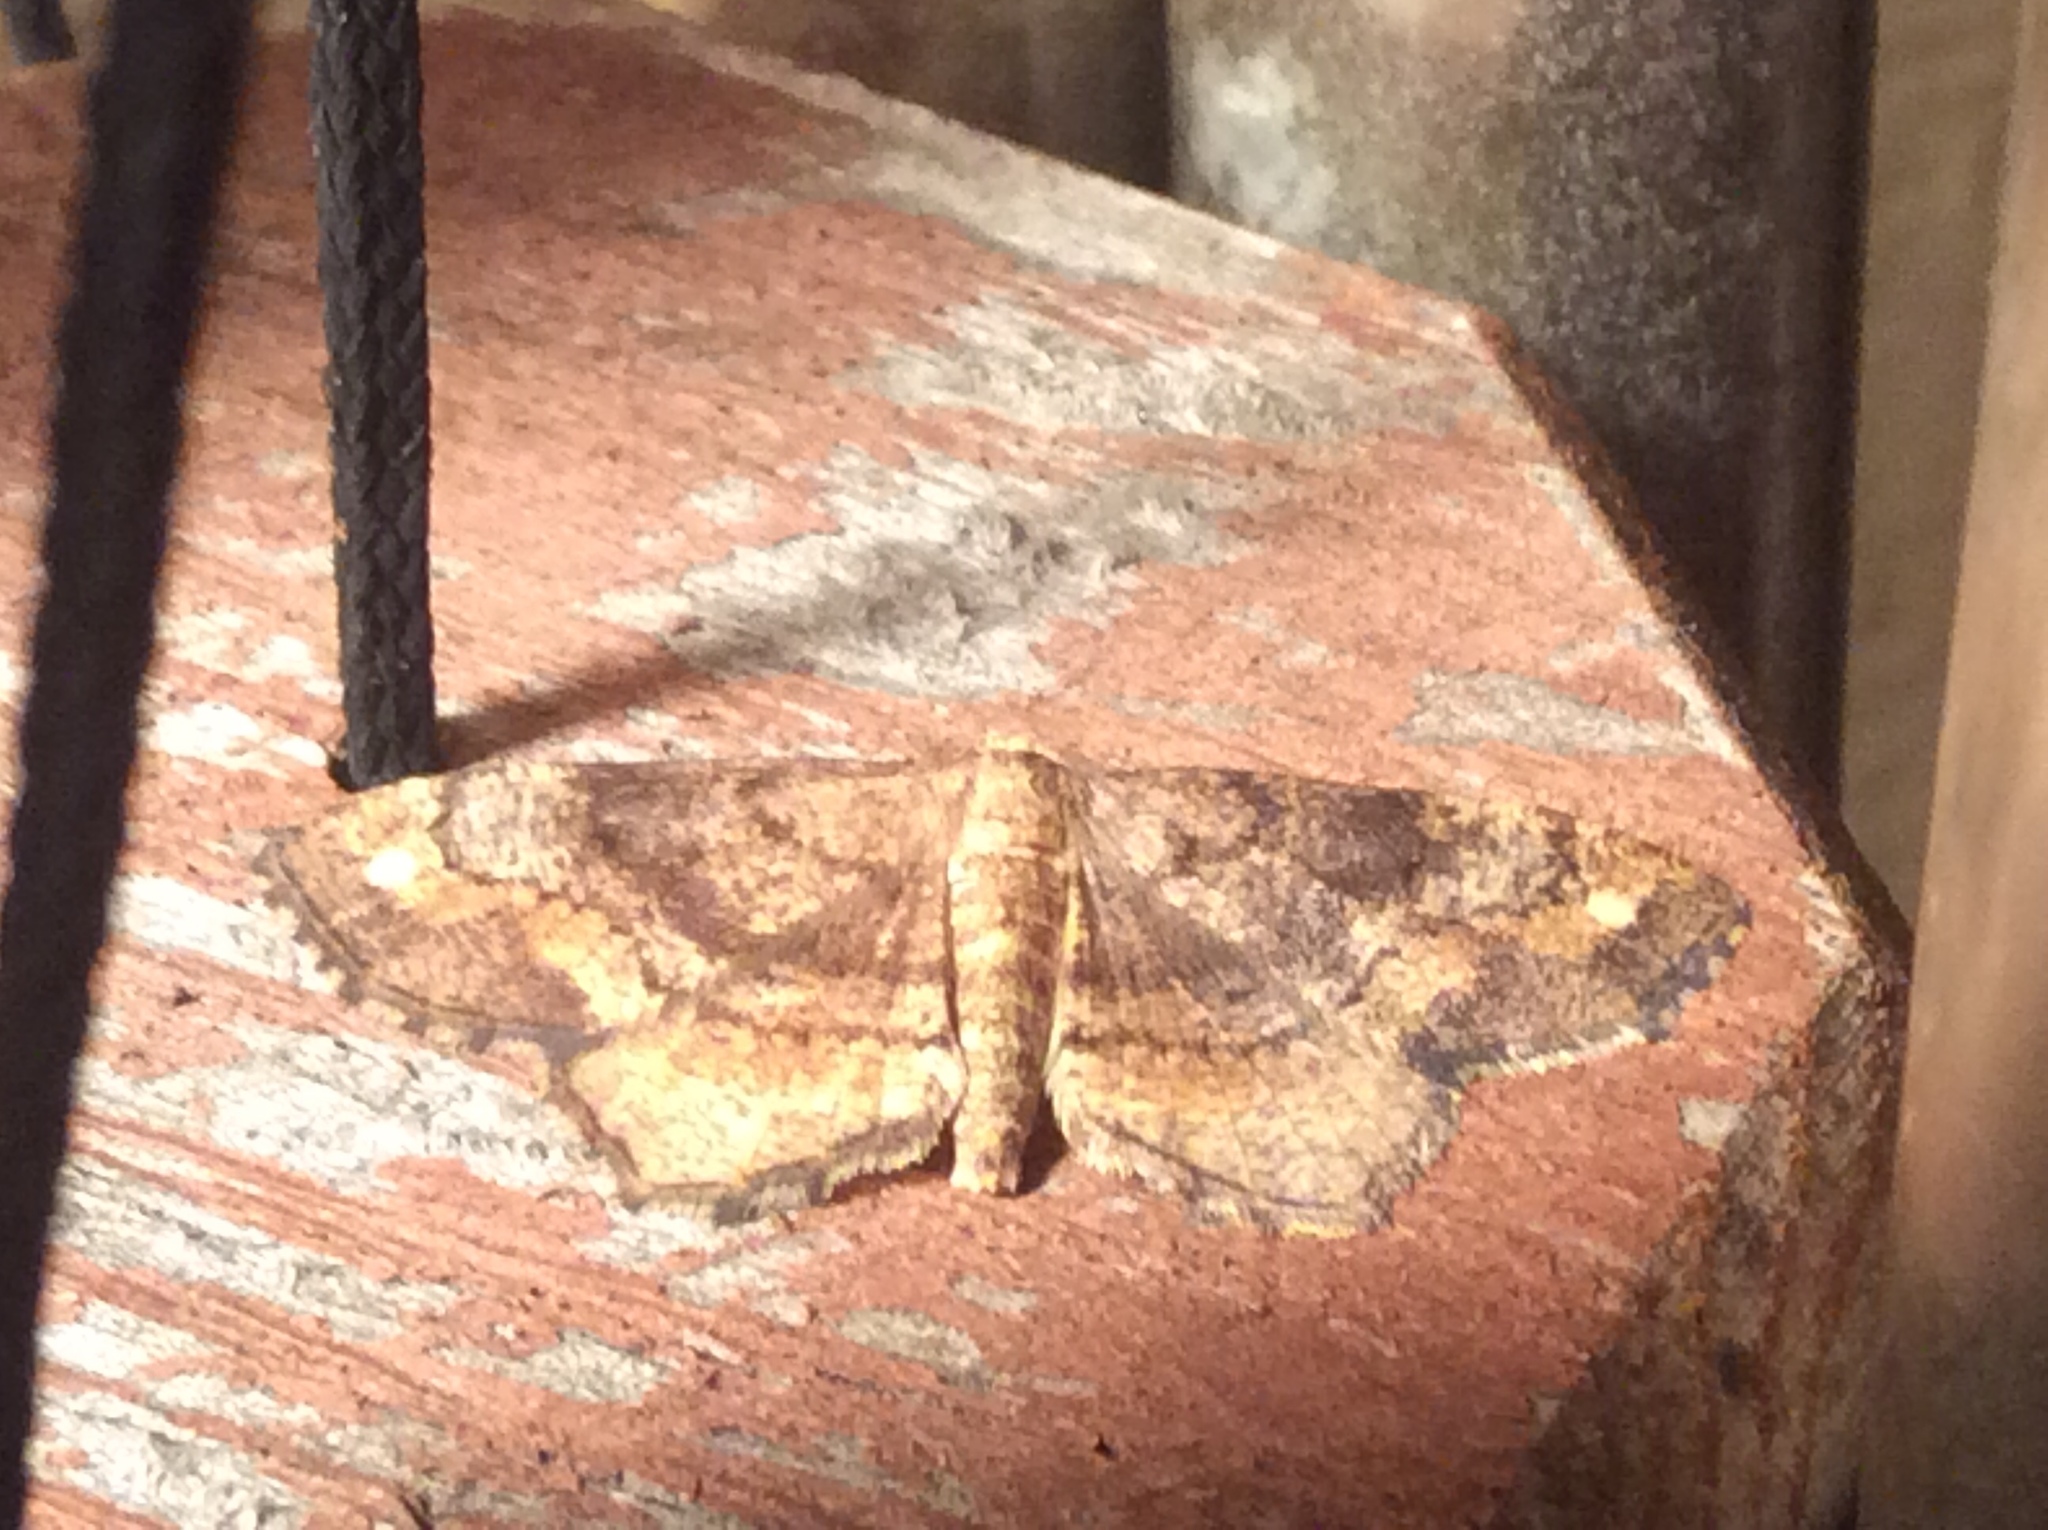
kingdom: Animalia
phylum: Arthropoda
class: Insecta
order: Lepidoptera
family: Geometridae
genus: Hypagyrtis
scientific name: Hypagyrtis unipunctata
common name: One-spotted variant
